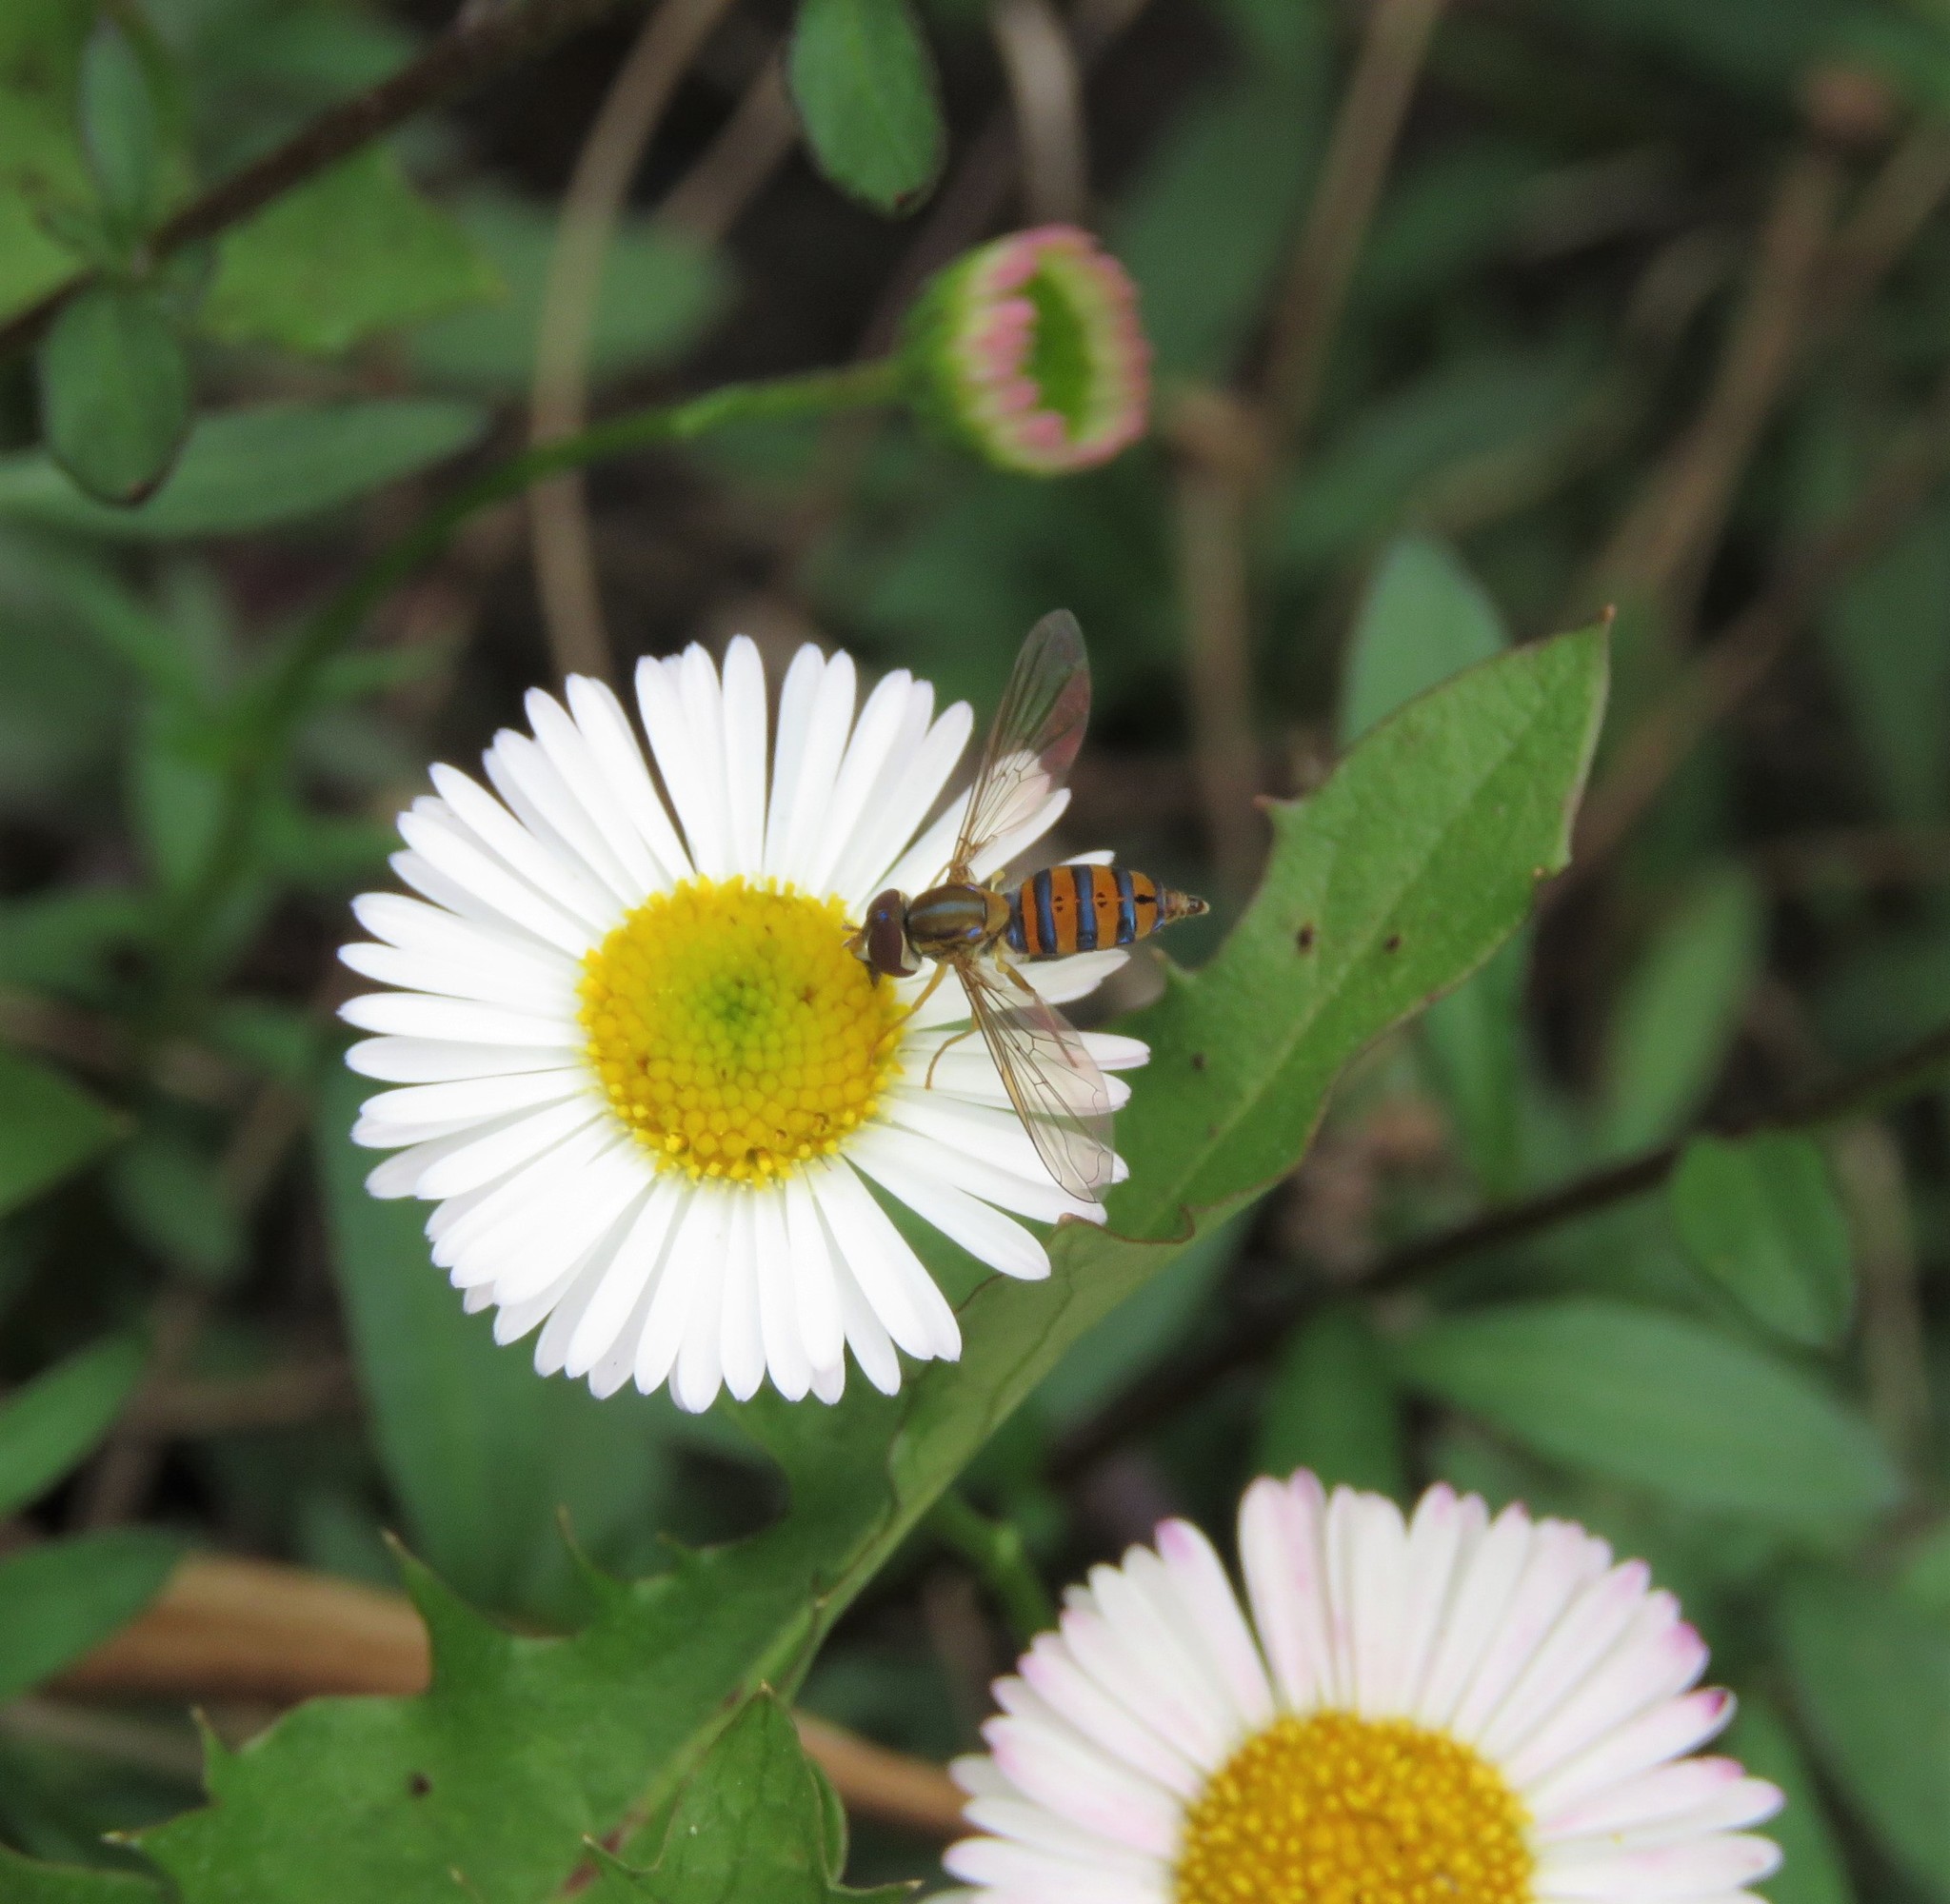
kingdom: Plantae
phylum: Tracheophyta
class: Magnoliopsida
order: Asterales
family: Asteraceae
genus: Erigeron
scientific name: Erigeron karvinskianus
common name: Mexican fleabane
